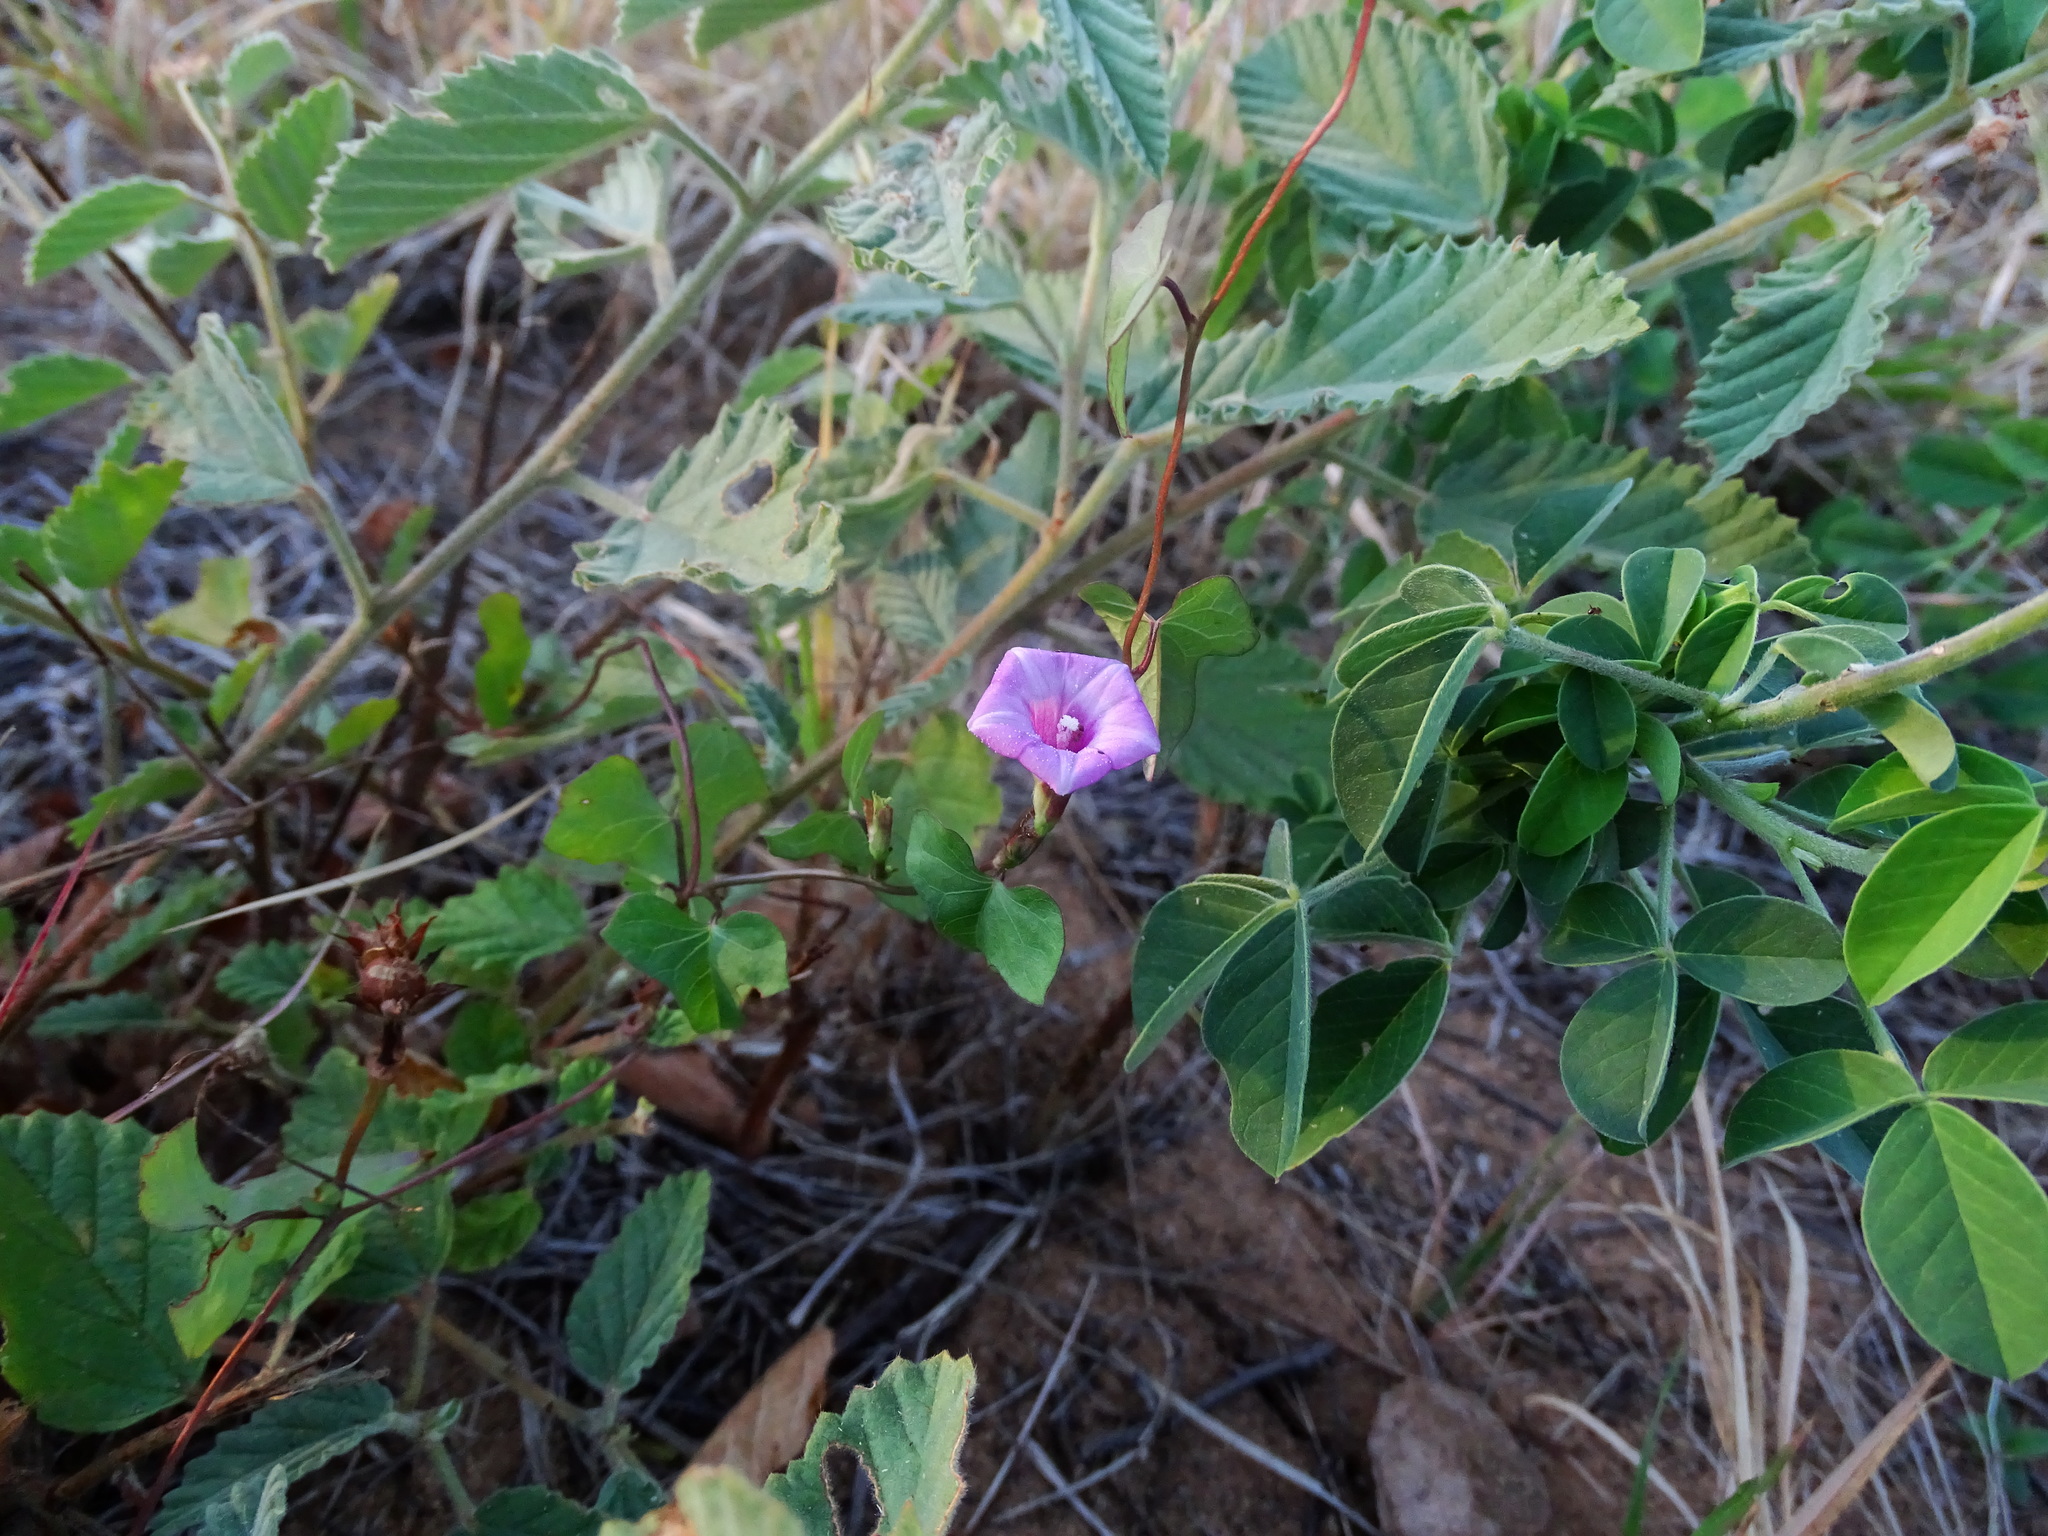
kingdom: Plantae
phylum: Tracheophyta
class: Magnoliopsida
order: Solanales
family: Convolvulaceae
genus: Ipomoea
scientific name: Ipomoea triloba
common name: Little-bell
